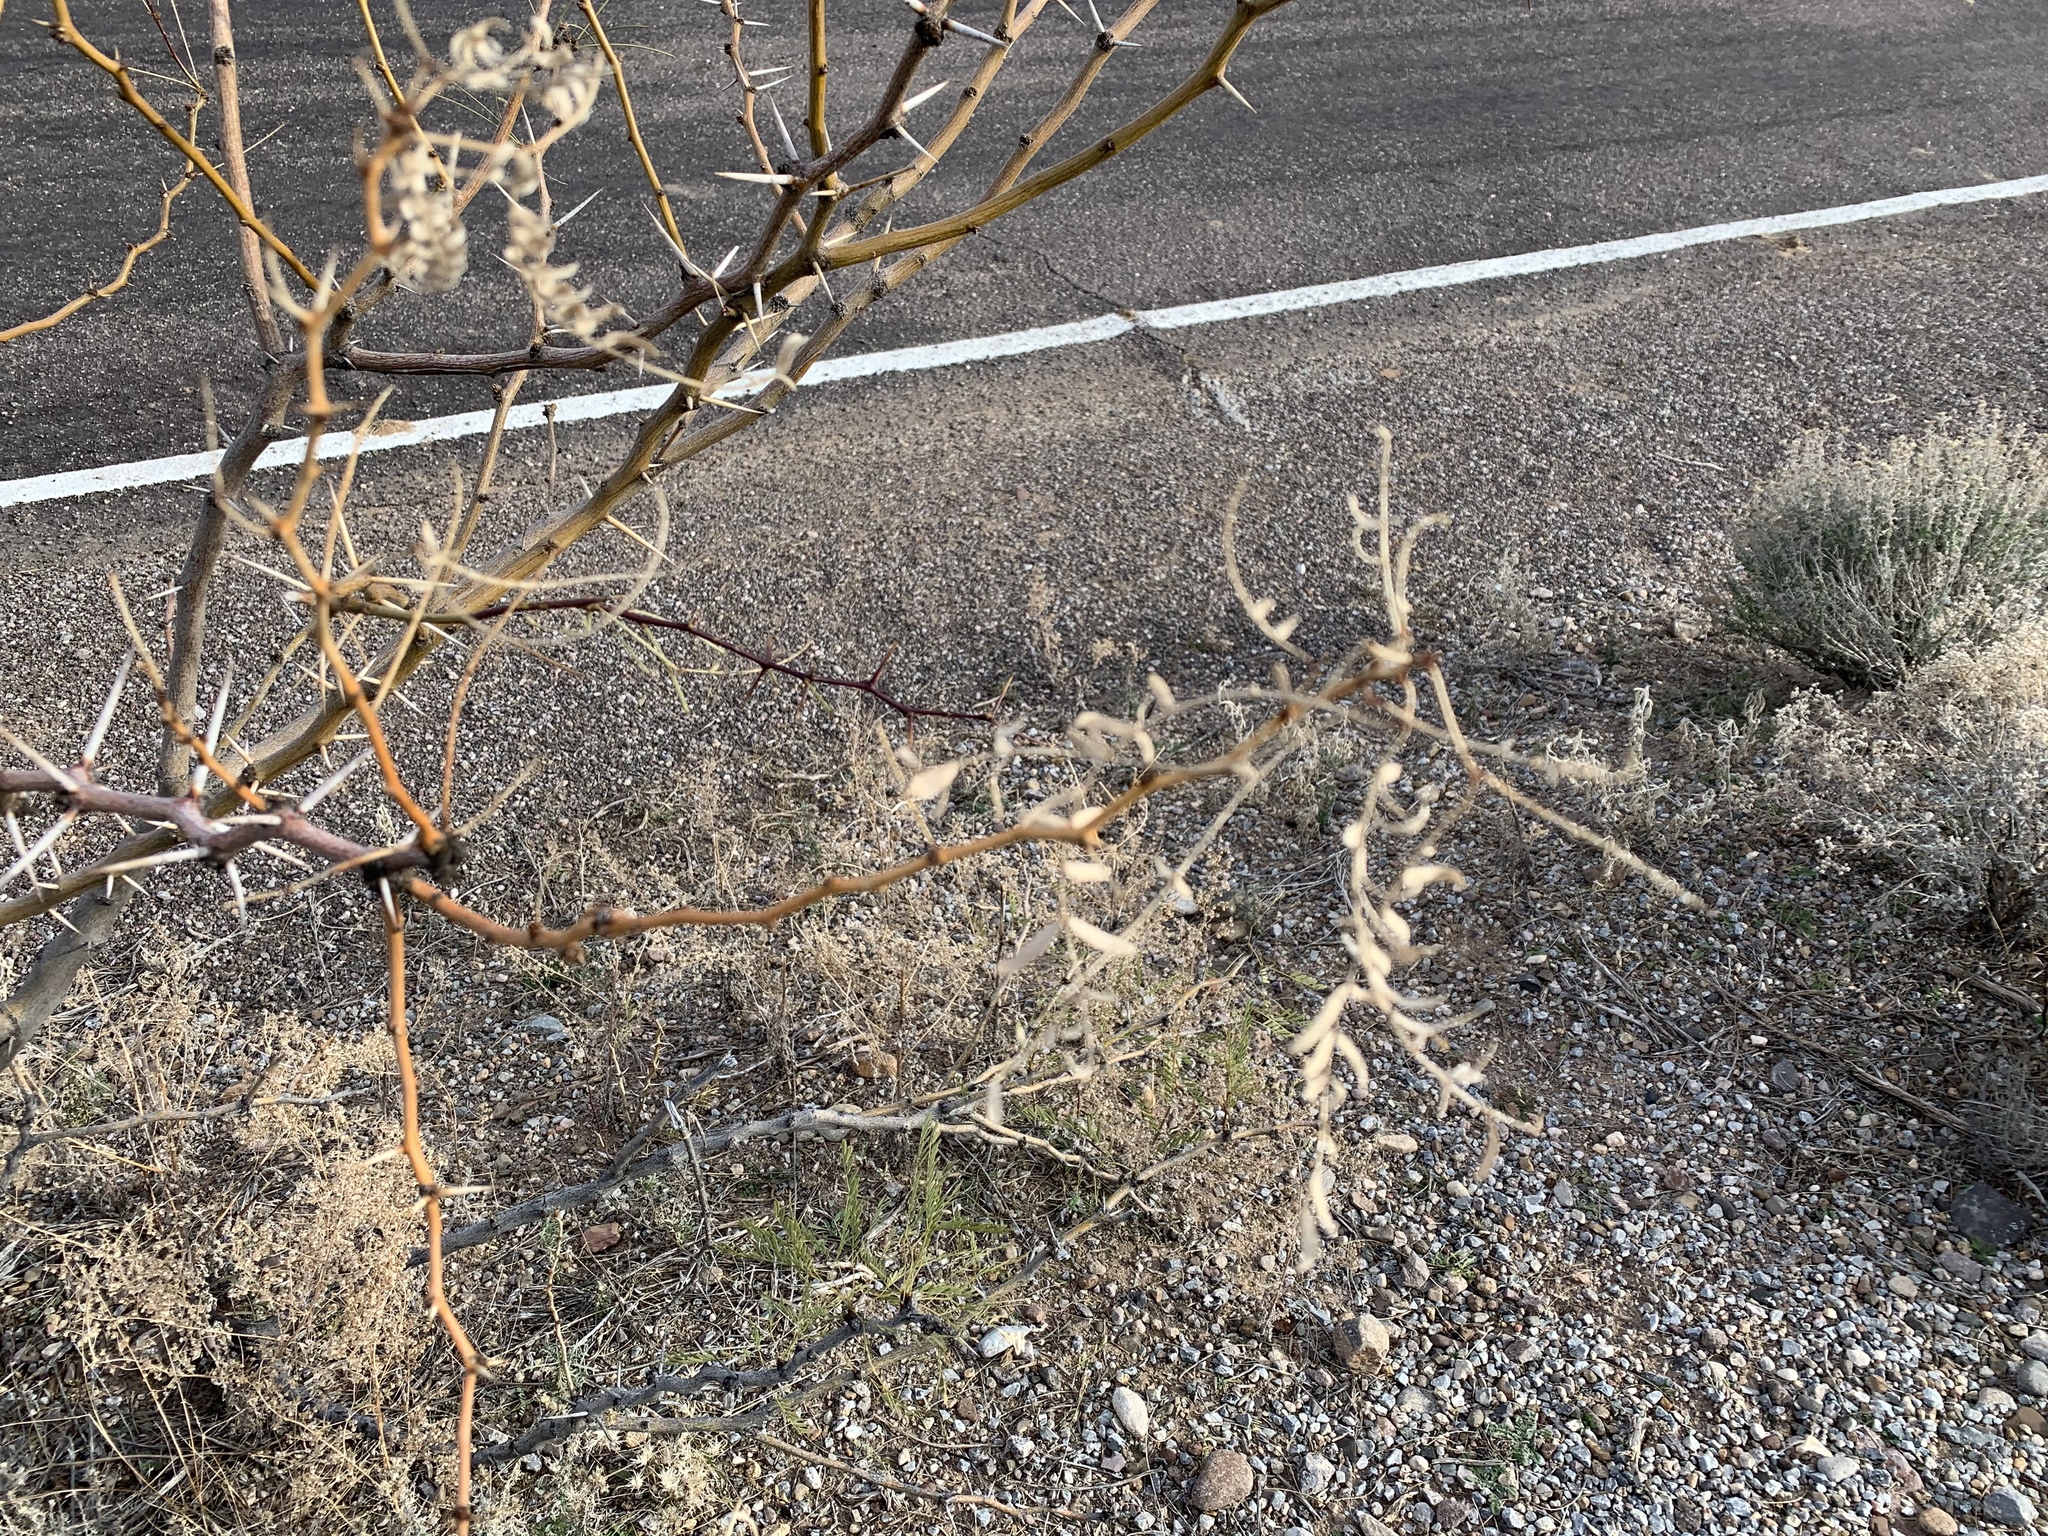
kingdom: Plantae
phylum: Tracheophyta
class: Magnoliopsida
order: Fabales
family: Fabaceae
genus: Prosopis
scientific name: Prosopis glandulosa
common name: Honey mesquite
